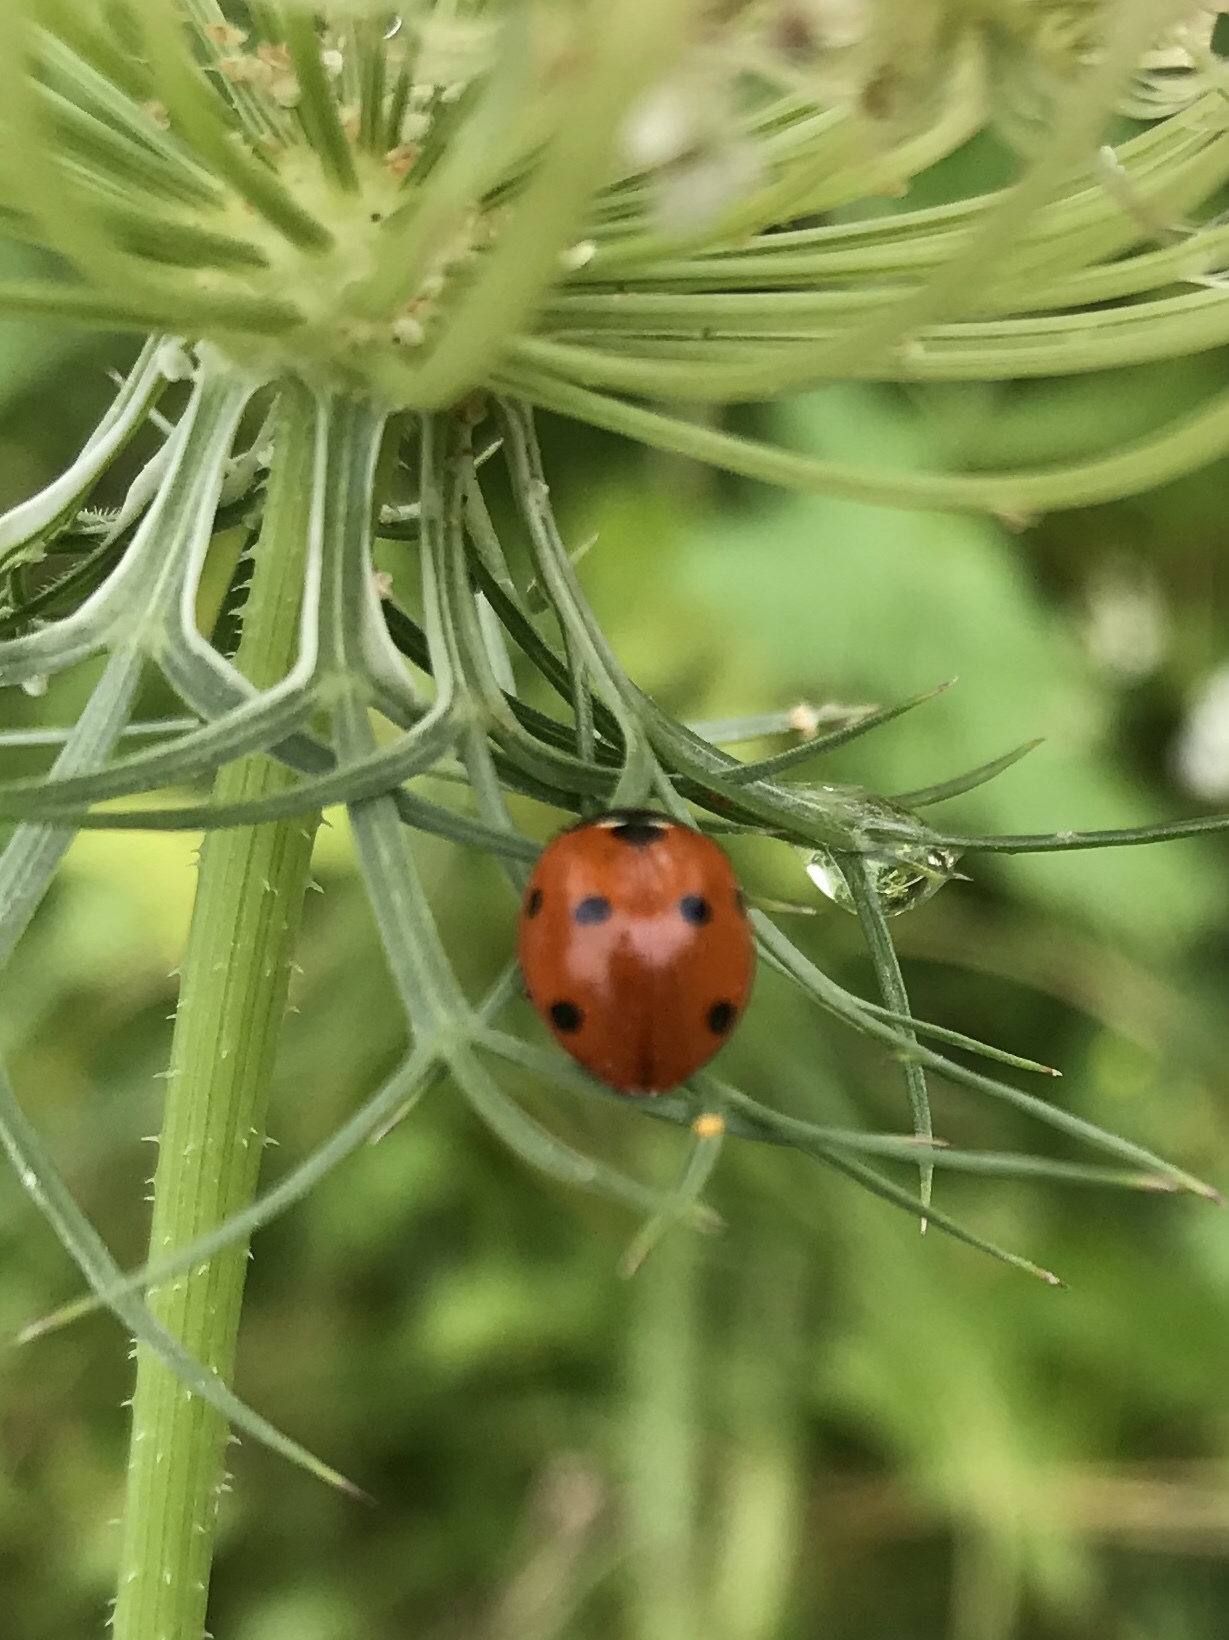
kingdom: Animalia
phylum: Arthropoda
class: Insecta
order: Coleoptera
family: Coccinellidae
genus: Coccinella
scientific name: Coccinella septempunctata
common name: Sevenspotted lady beetle
